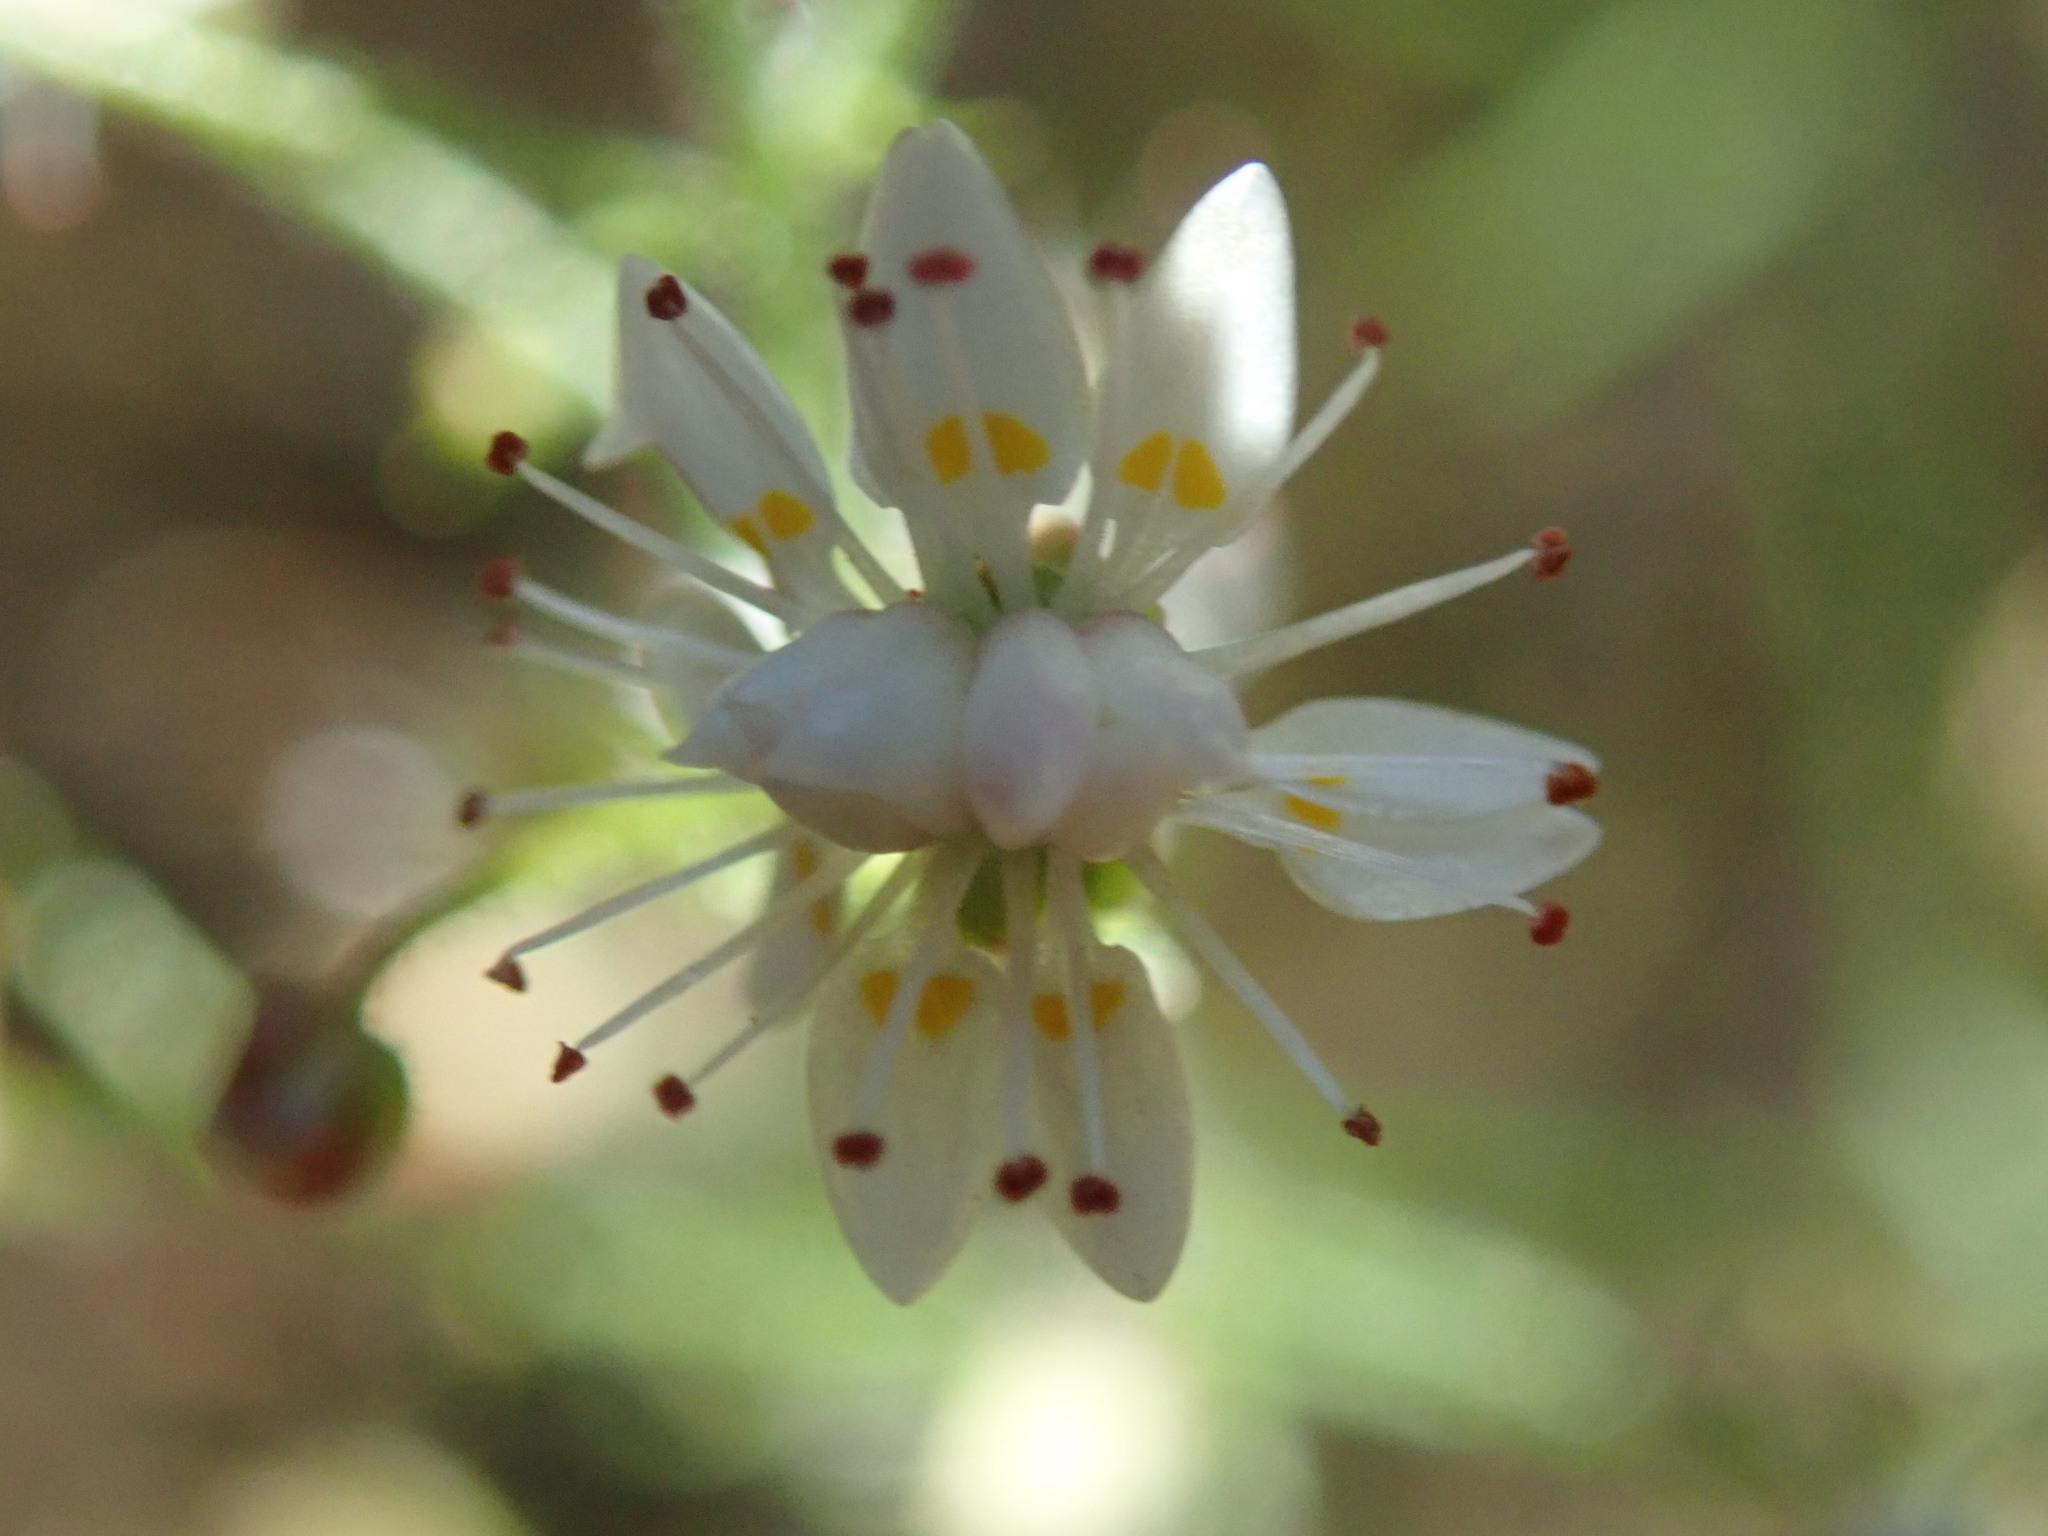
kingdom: Plantae
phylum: Tracheophyta
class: Magnoliopsida
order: Saxifragales
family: Saxifragaceae
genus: Micranthes
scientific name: Micranthes ferruginea
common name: Rusty saxifrage
